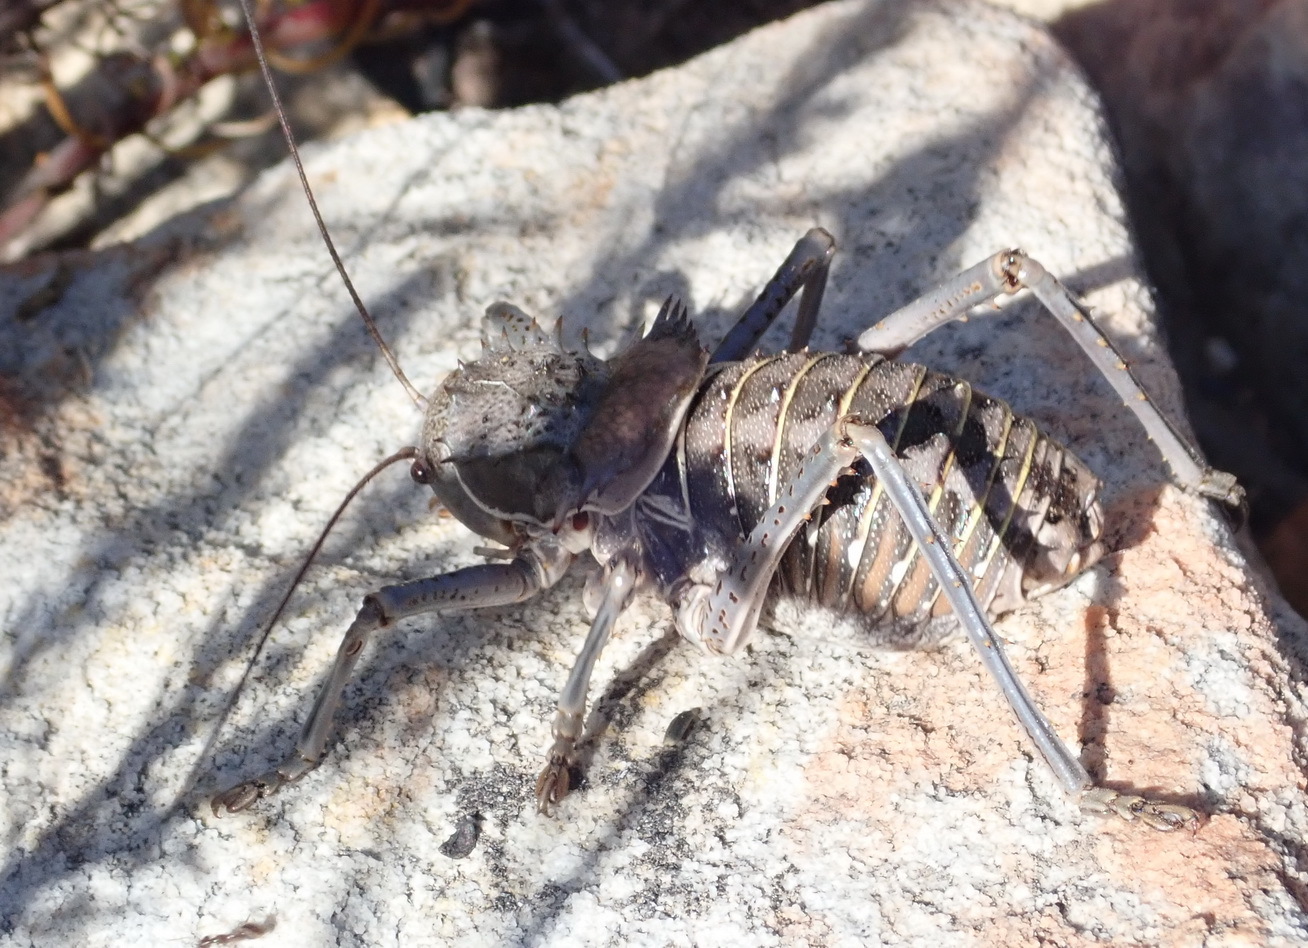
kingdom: Animalia
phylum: Arthropoda
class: Insecta
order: Orthoptera
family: Tettigoniidae
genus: Hetrodes
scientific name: Hetrodes pupus
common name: Koringkriek
